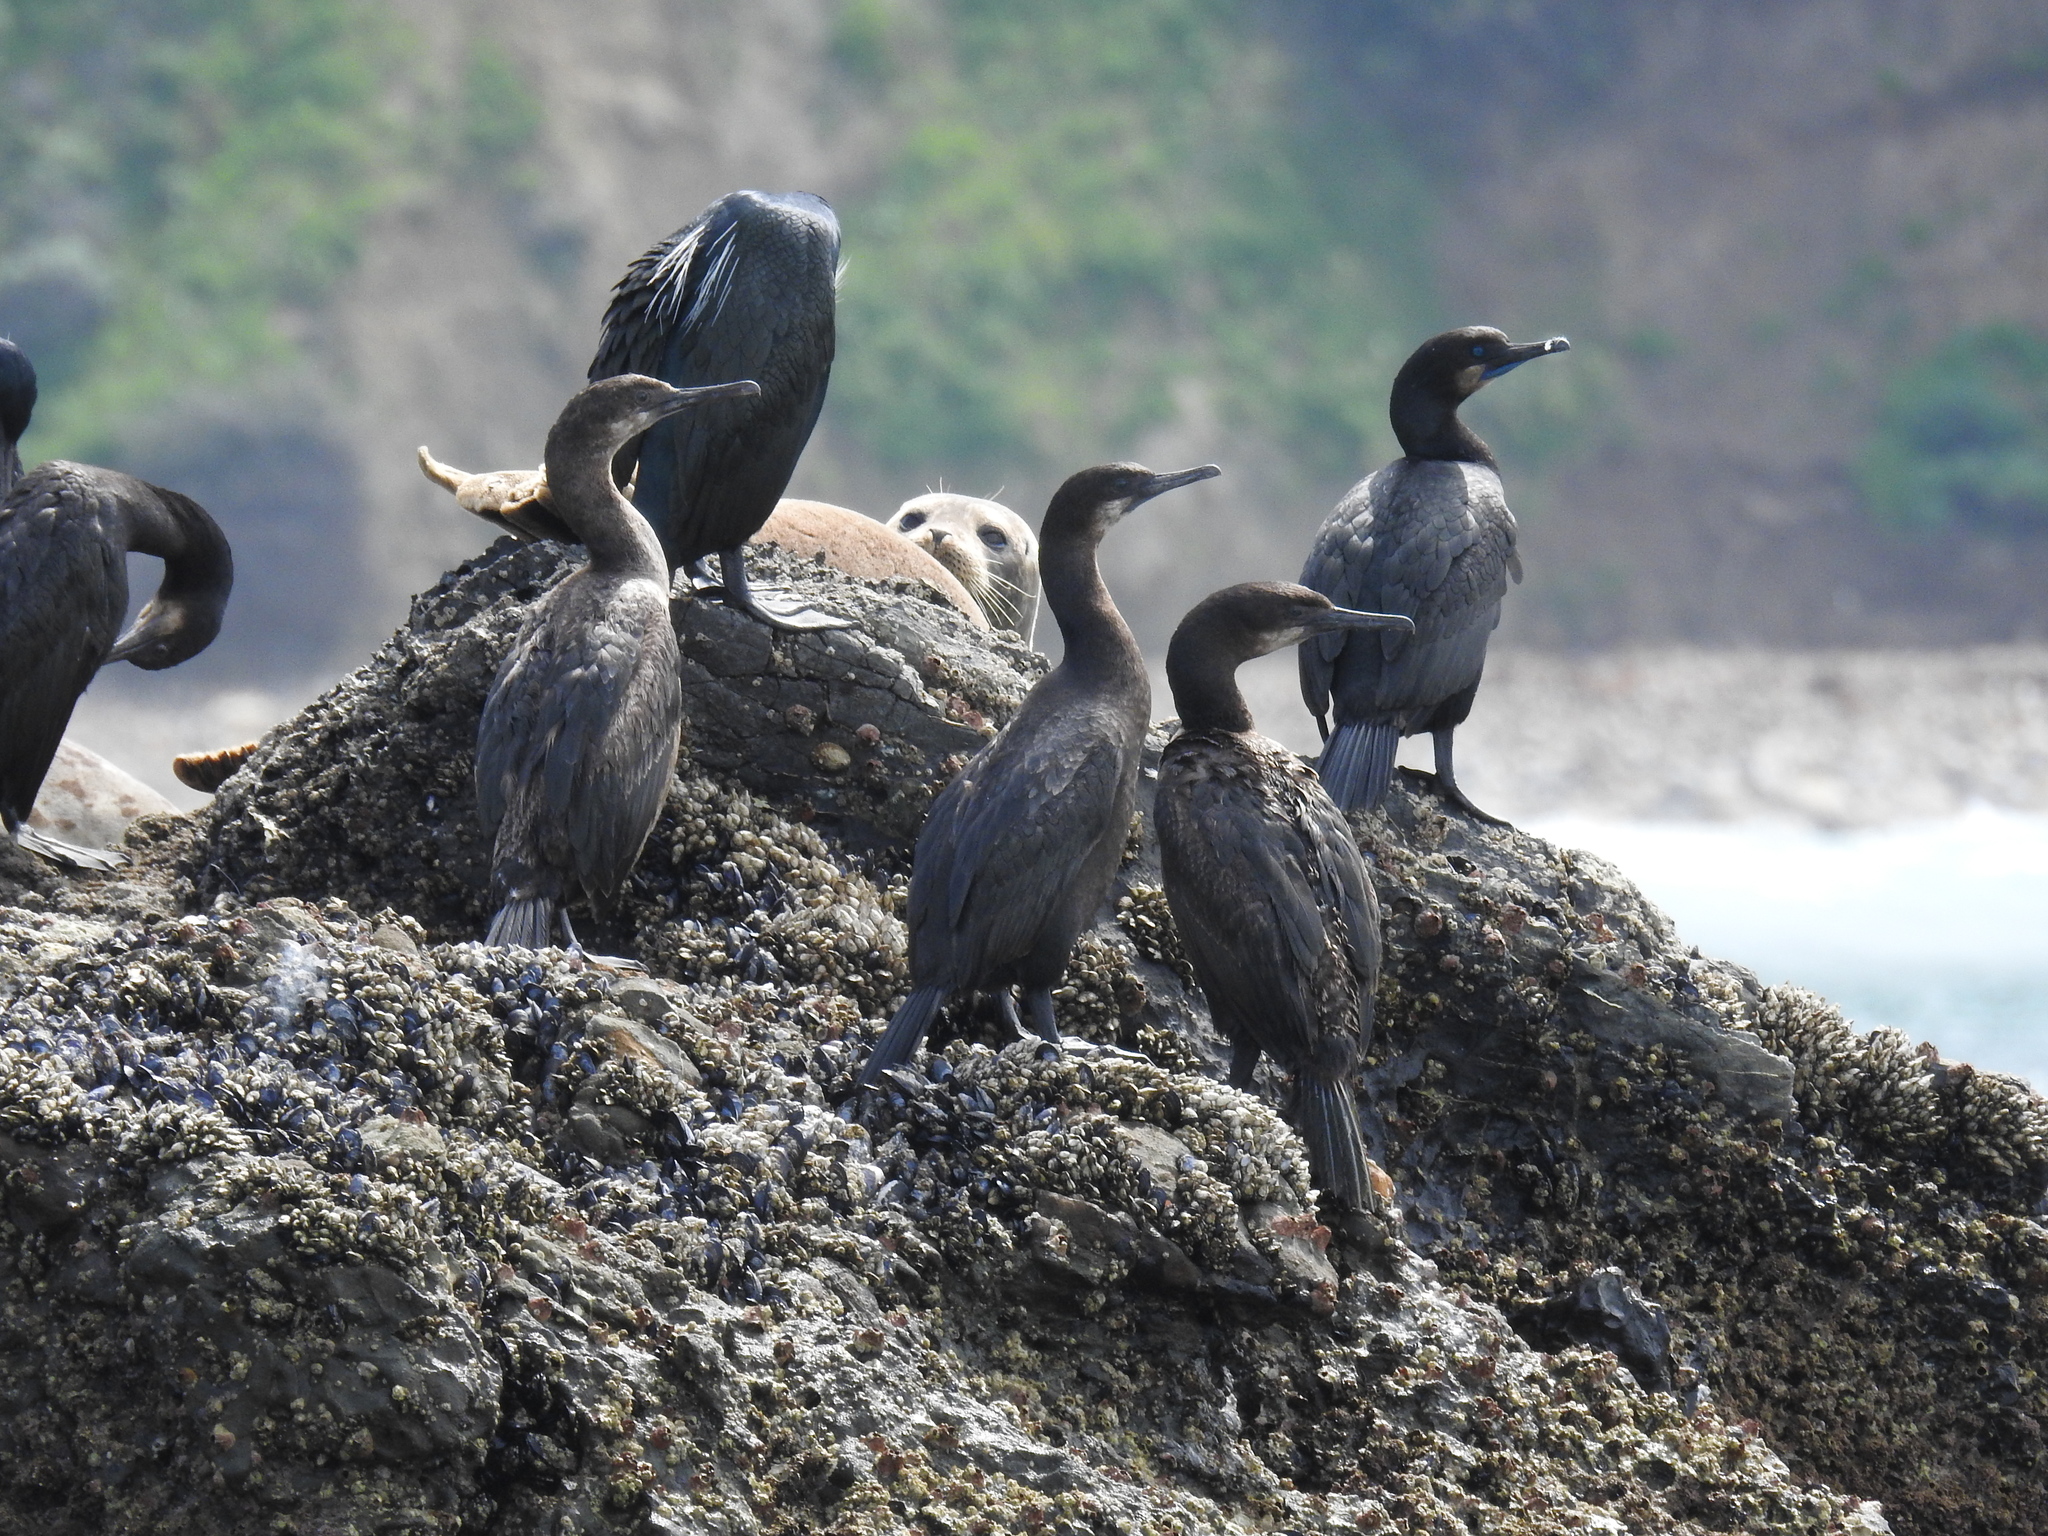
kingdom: Animalia
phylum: Chordata
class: Mammalia
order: Carnivora
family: Phocidae
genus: Phoca
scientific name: Phoca vitulina
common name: Harbor seal
